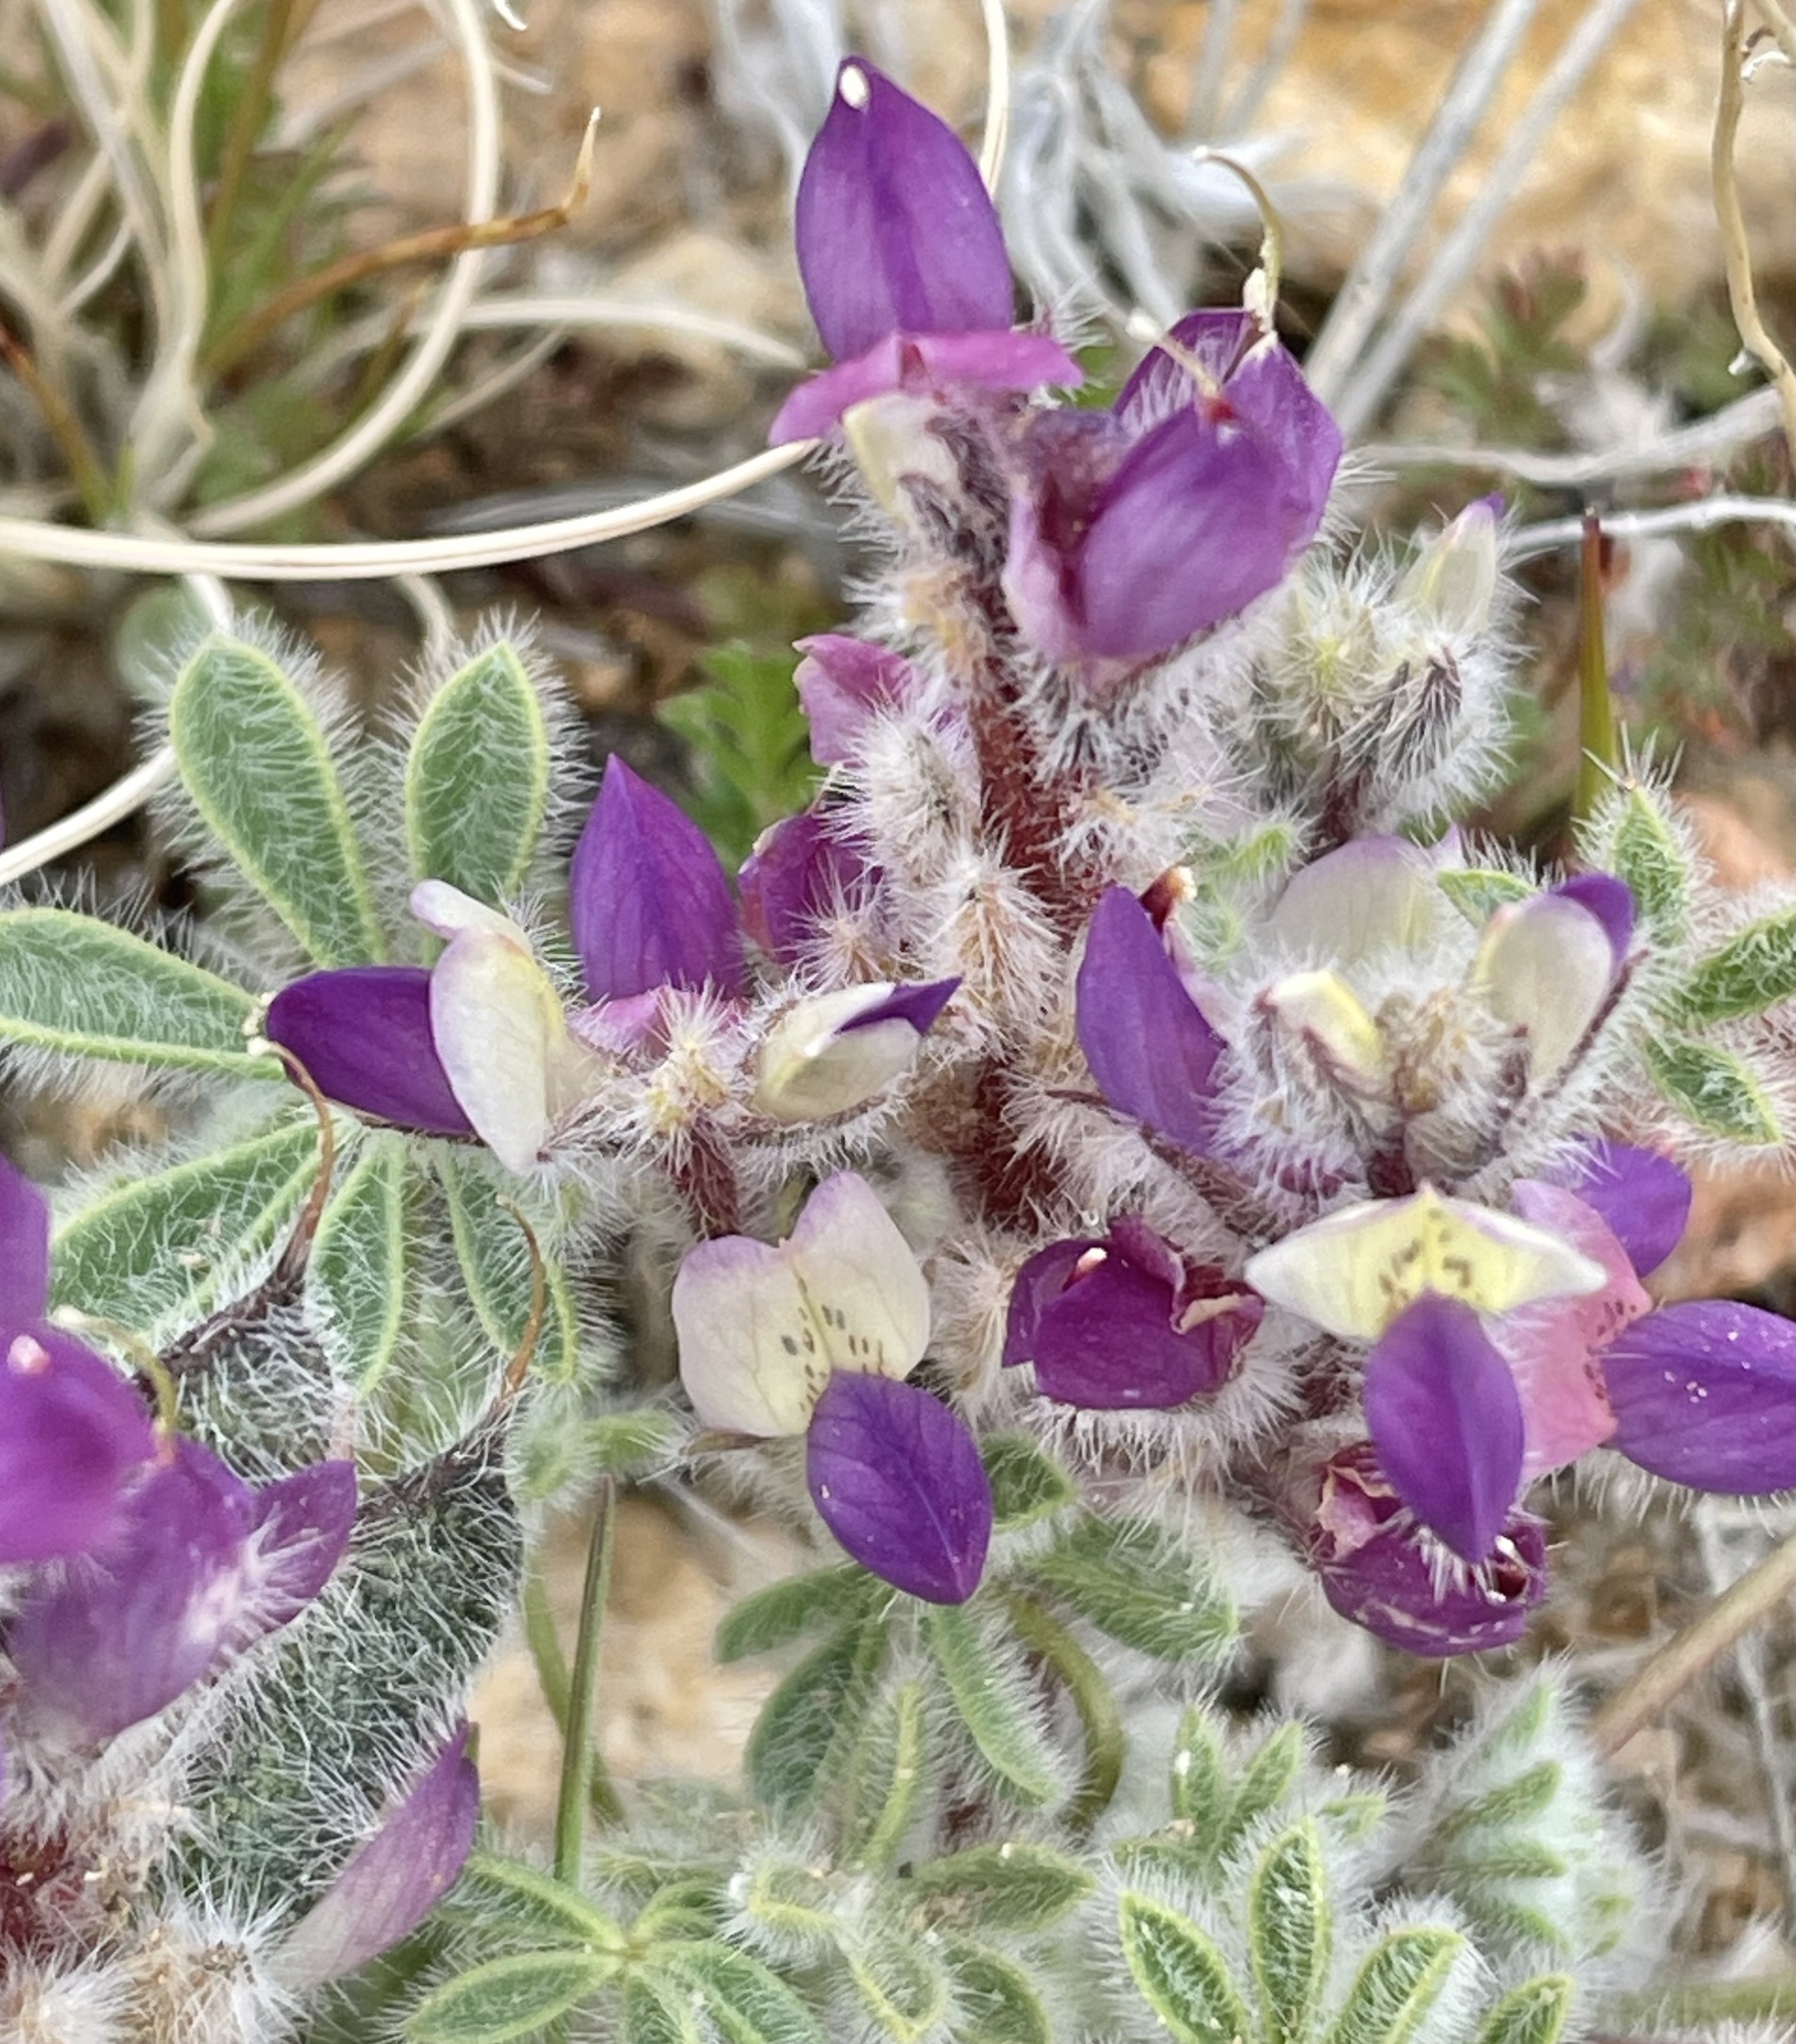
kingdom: Plantae
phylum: Tracheophyta
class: Magnoliopsida
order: Fabales
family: Fabaceae
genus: Lupinus
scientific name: Lupinus concinnus
